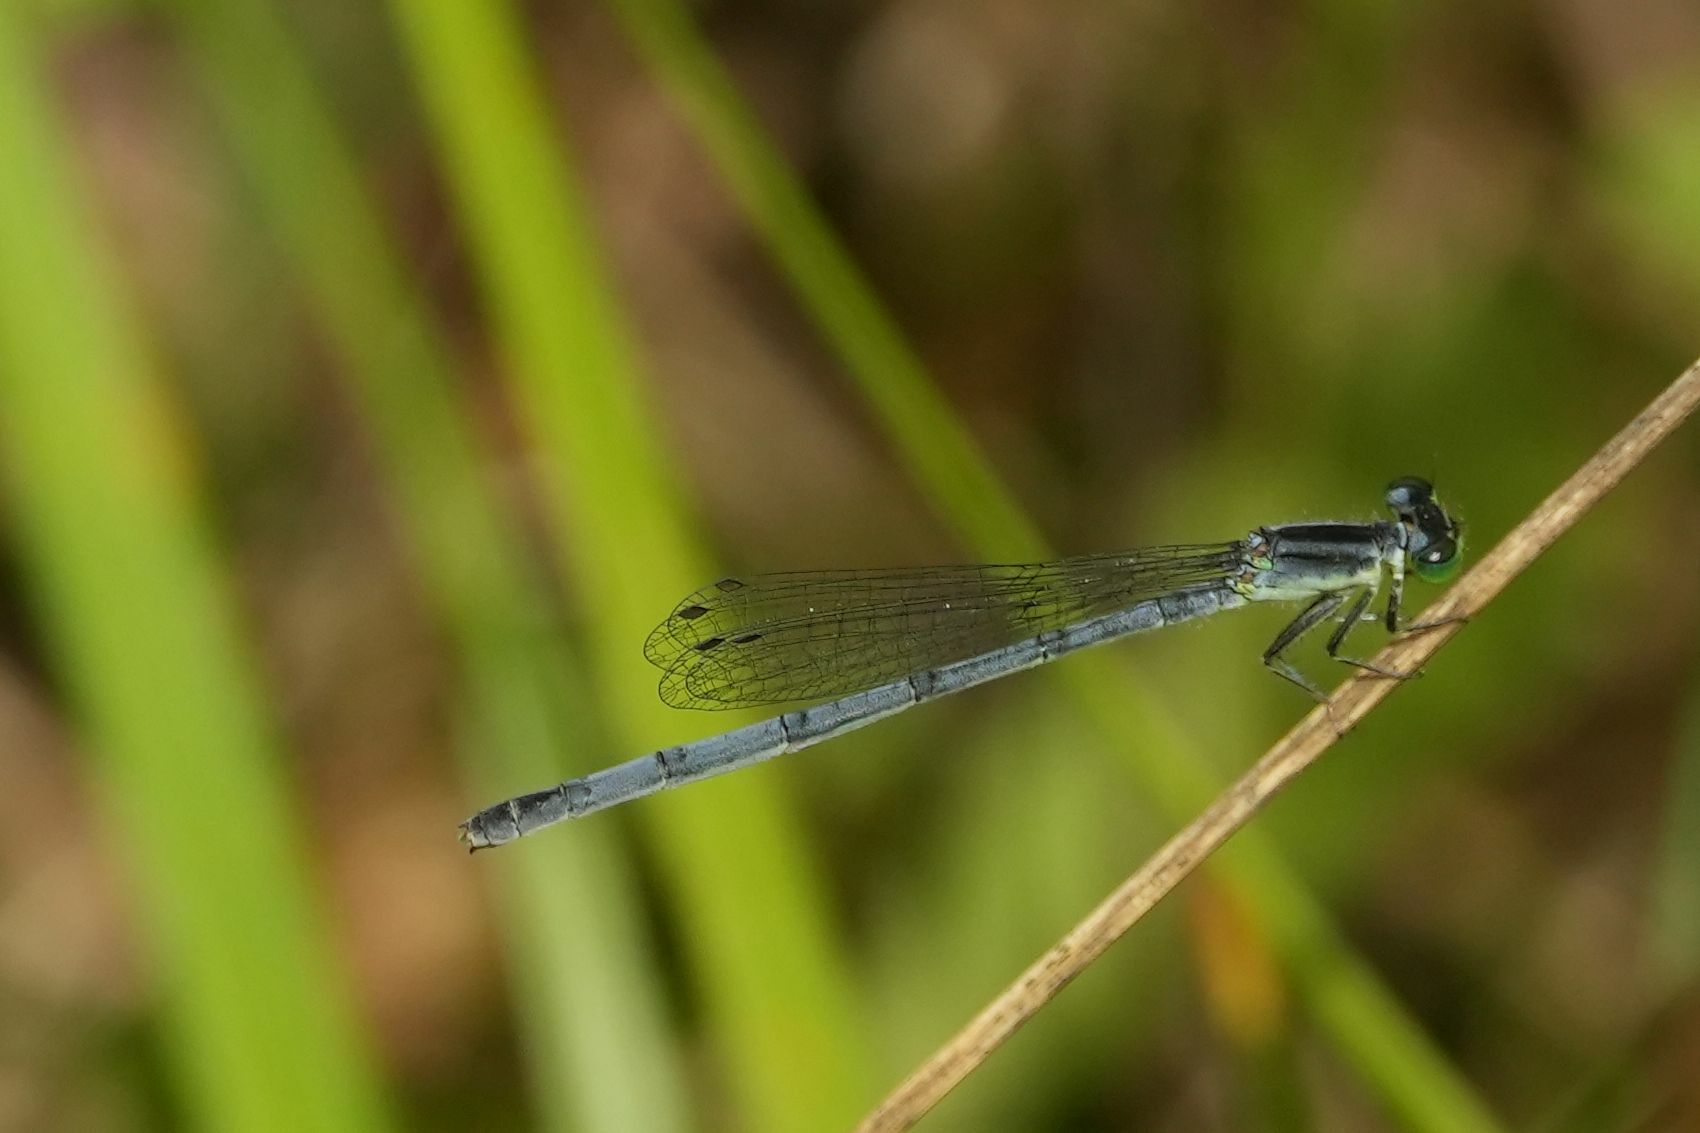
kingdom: Animalia
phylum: Arthropoda
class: Insecta
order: Odonata
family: Coenagrionidae
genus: Ischnura
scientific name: Ischnura verticalis
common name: Eastern forktail
